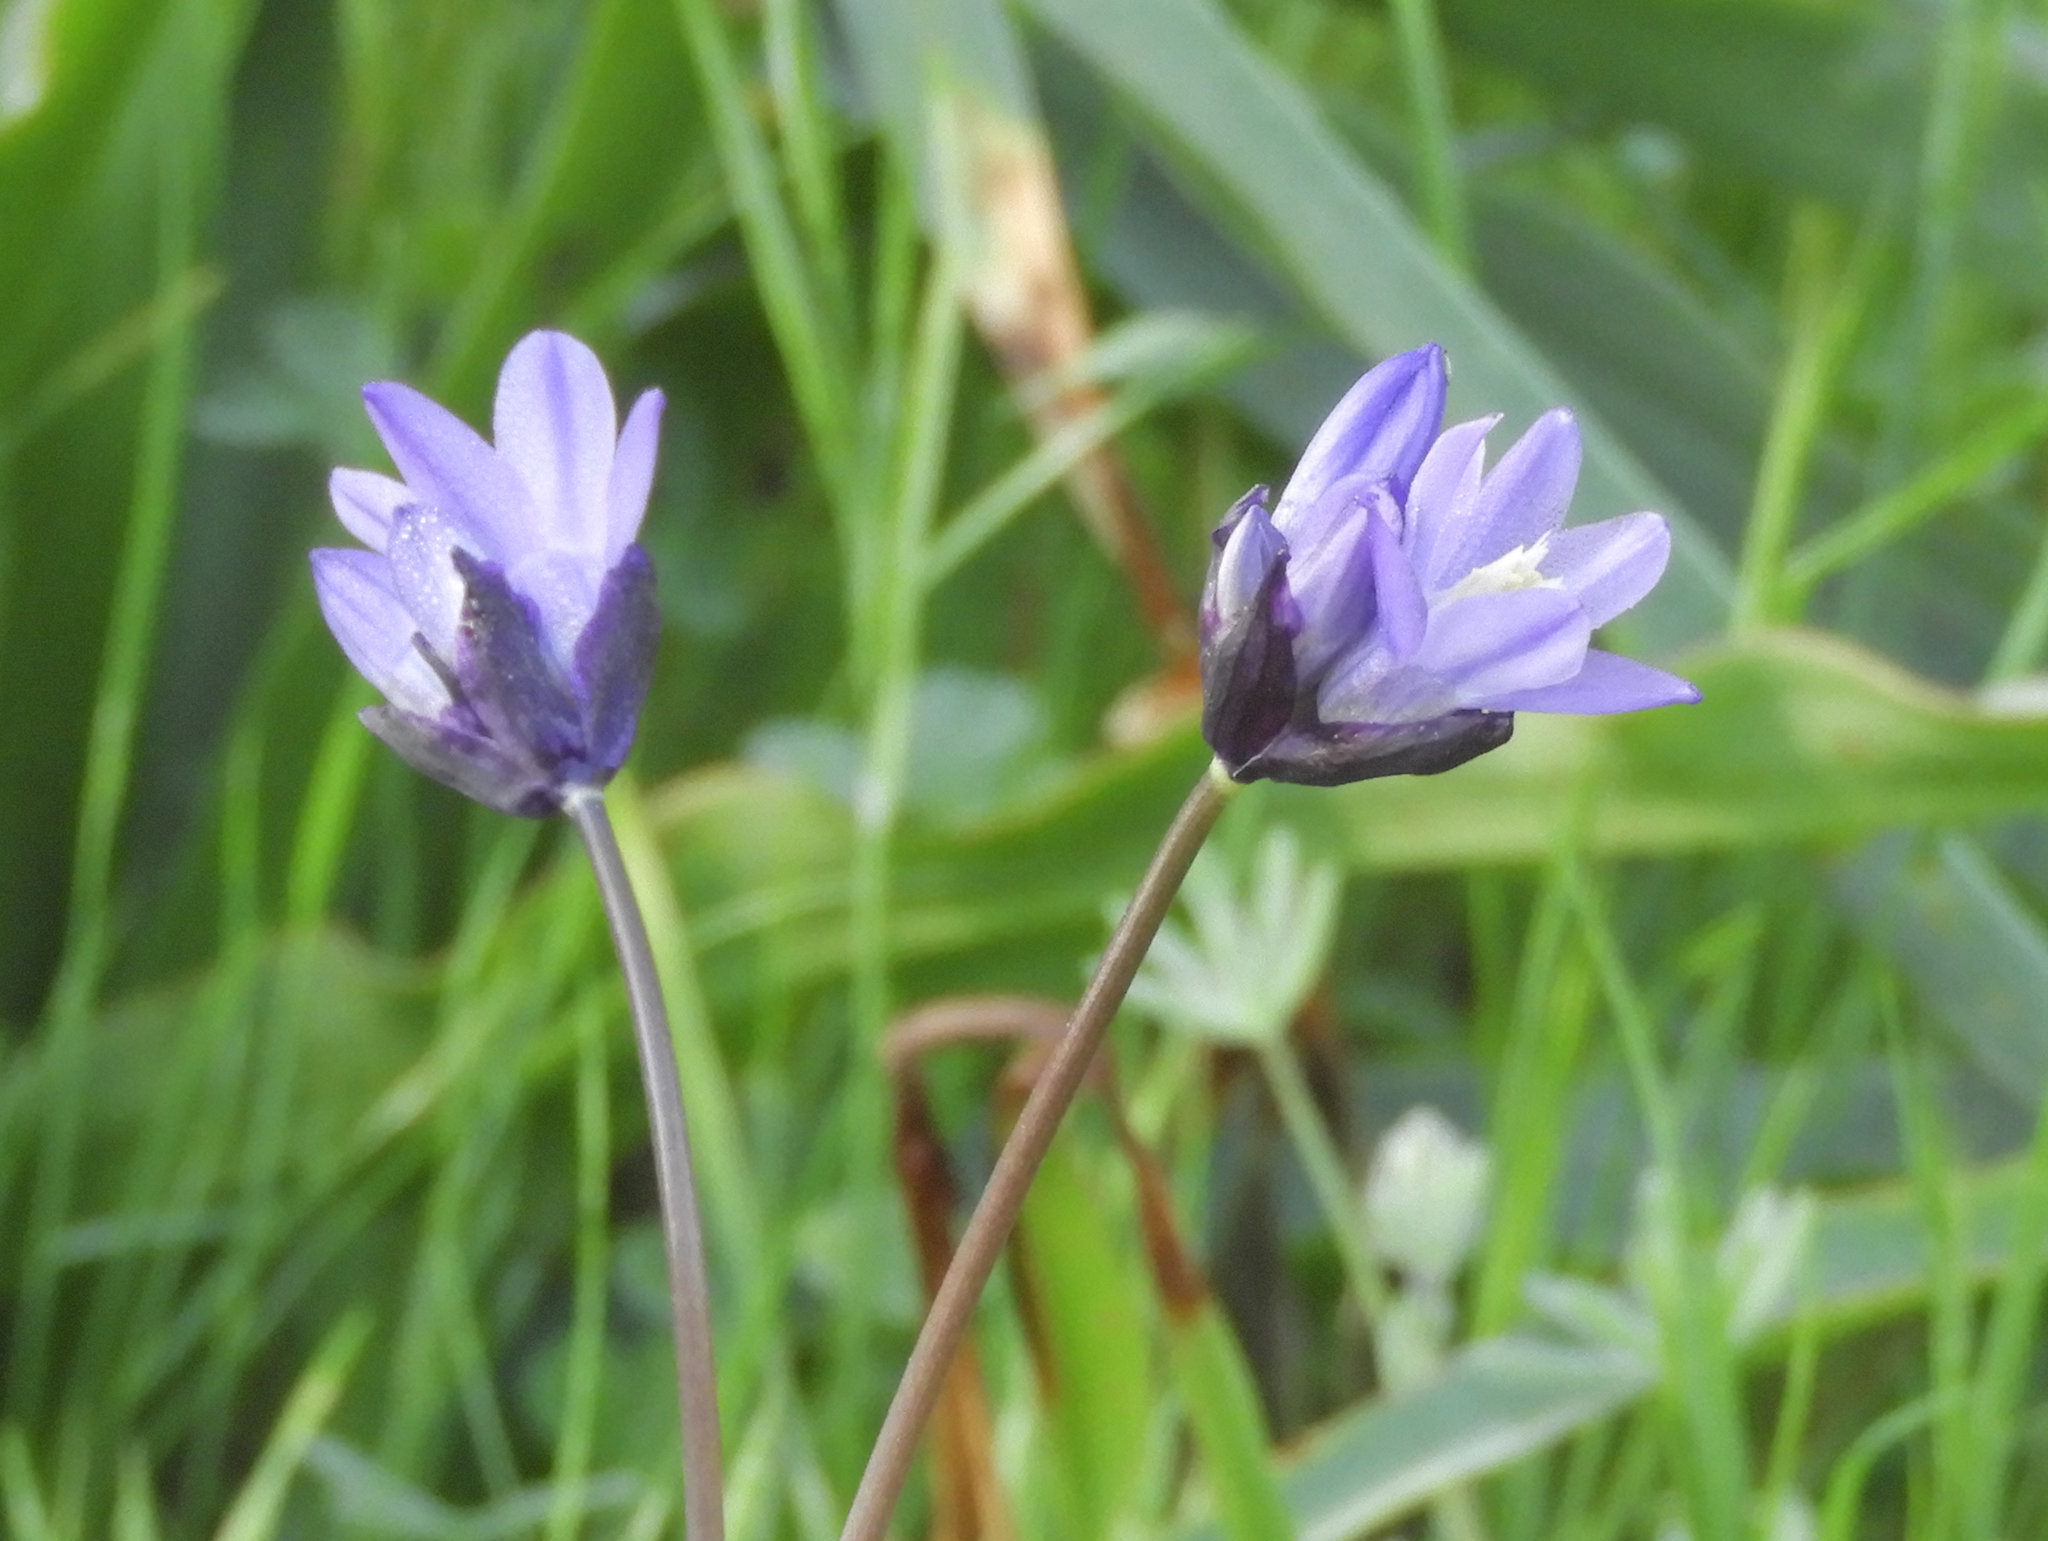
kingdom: Plantae
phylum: Tracheophyta
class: Liliopsida
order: Asparagales
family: Asparagaceae
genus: Dipterostemon
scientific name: Dipterostemon capitatus
